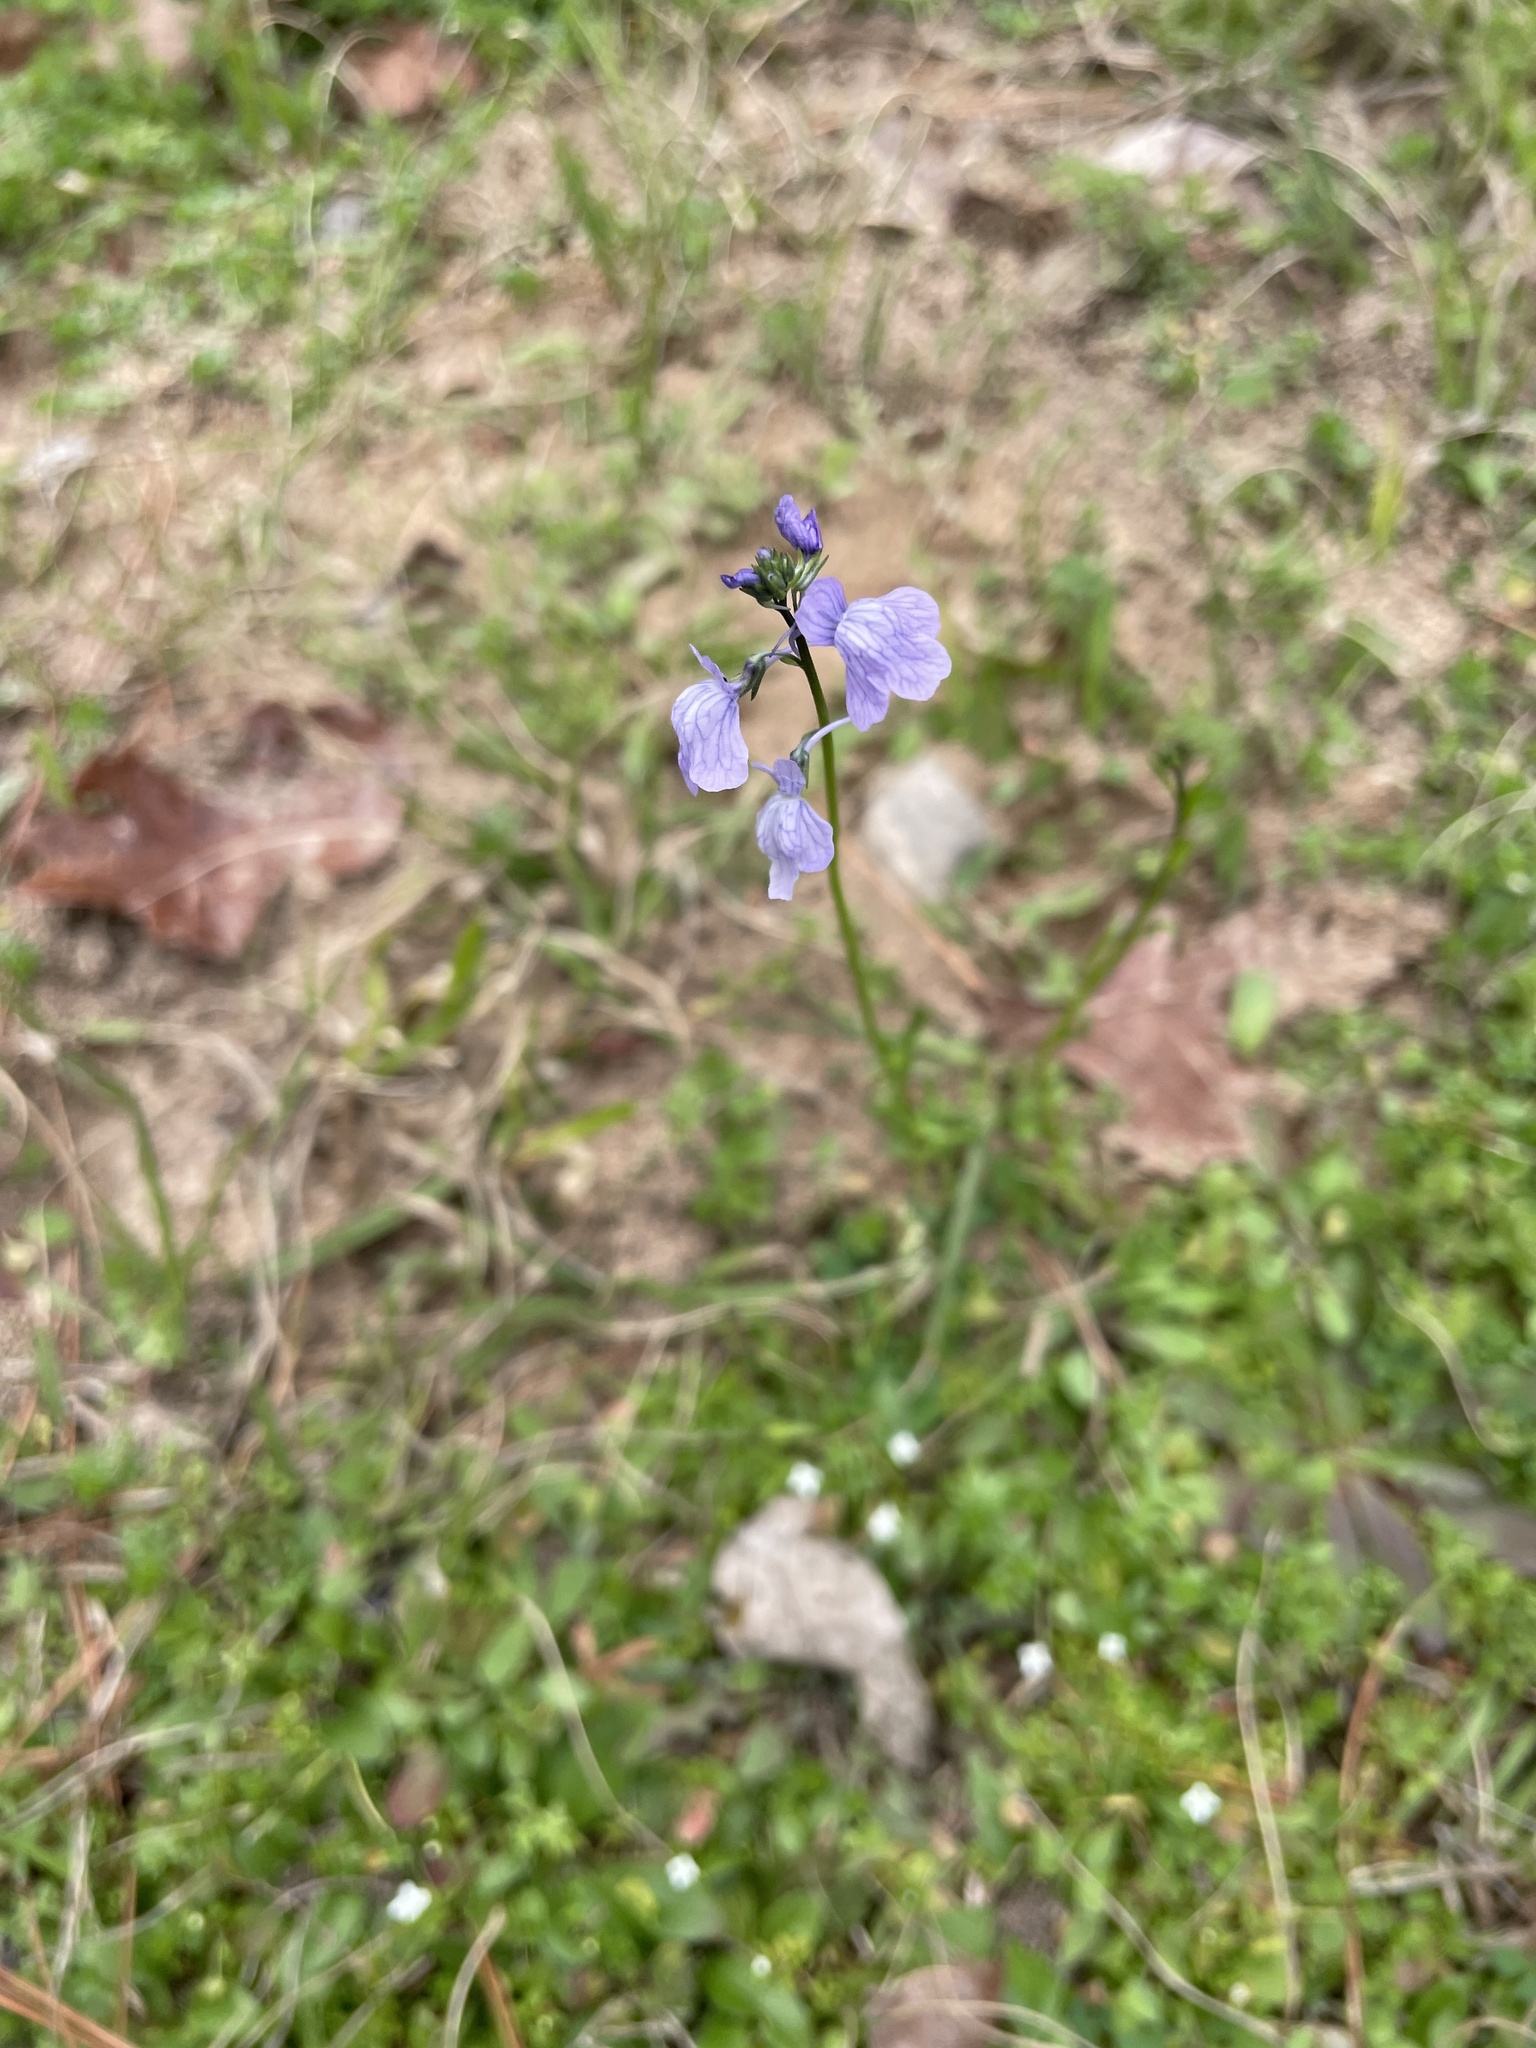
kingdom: Plantae
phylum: Tracheophyta
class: Magnoliopsida
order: Lamiales
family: Plantaginaceae
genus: Nuttallanthus
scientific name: Nuttallanthus texanus
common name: Texas toadflax
